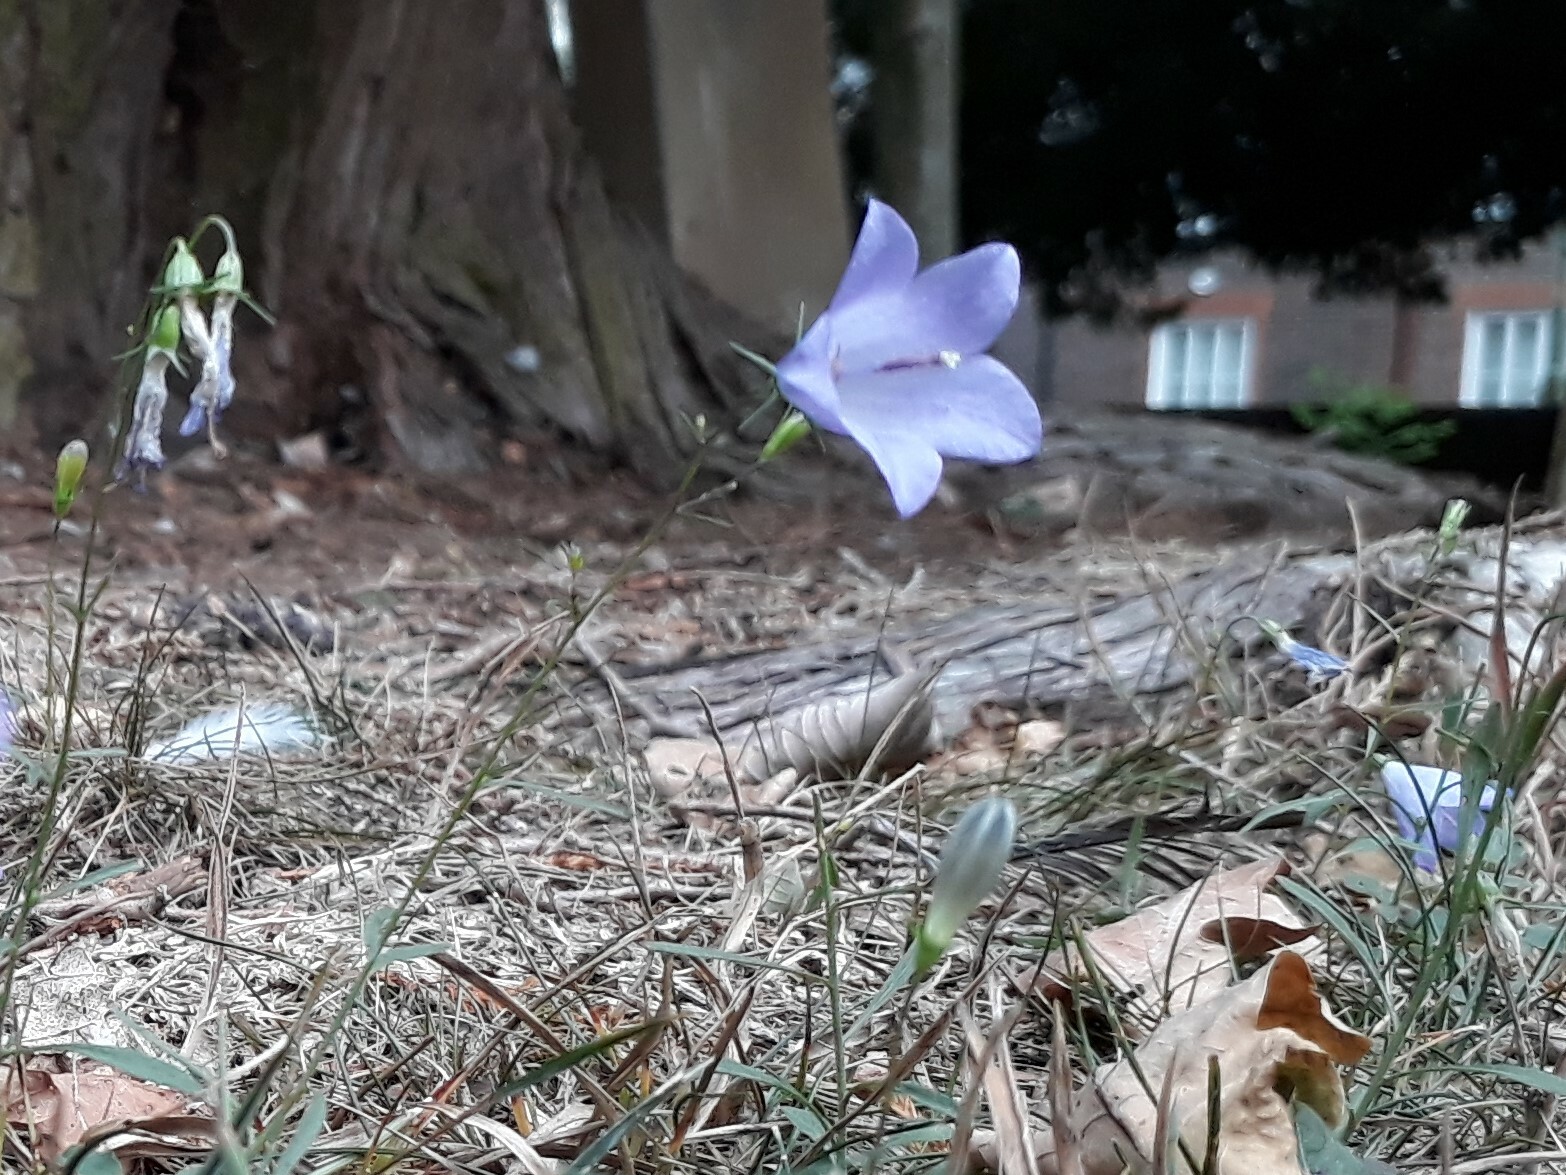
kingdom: Plantae
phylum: Tracheophyta
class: Magnoliopsida
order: Asterales
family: Campanulaceae
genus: Campanula
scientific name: Campanula rotundifolia
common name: Harebell
